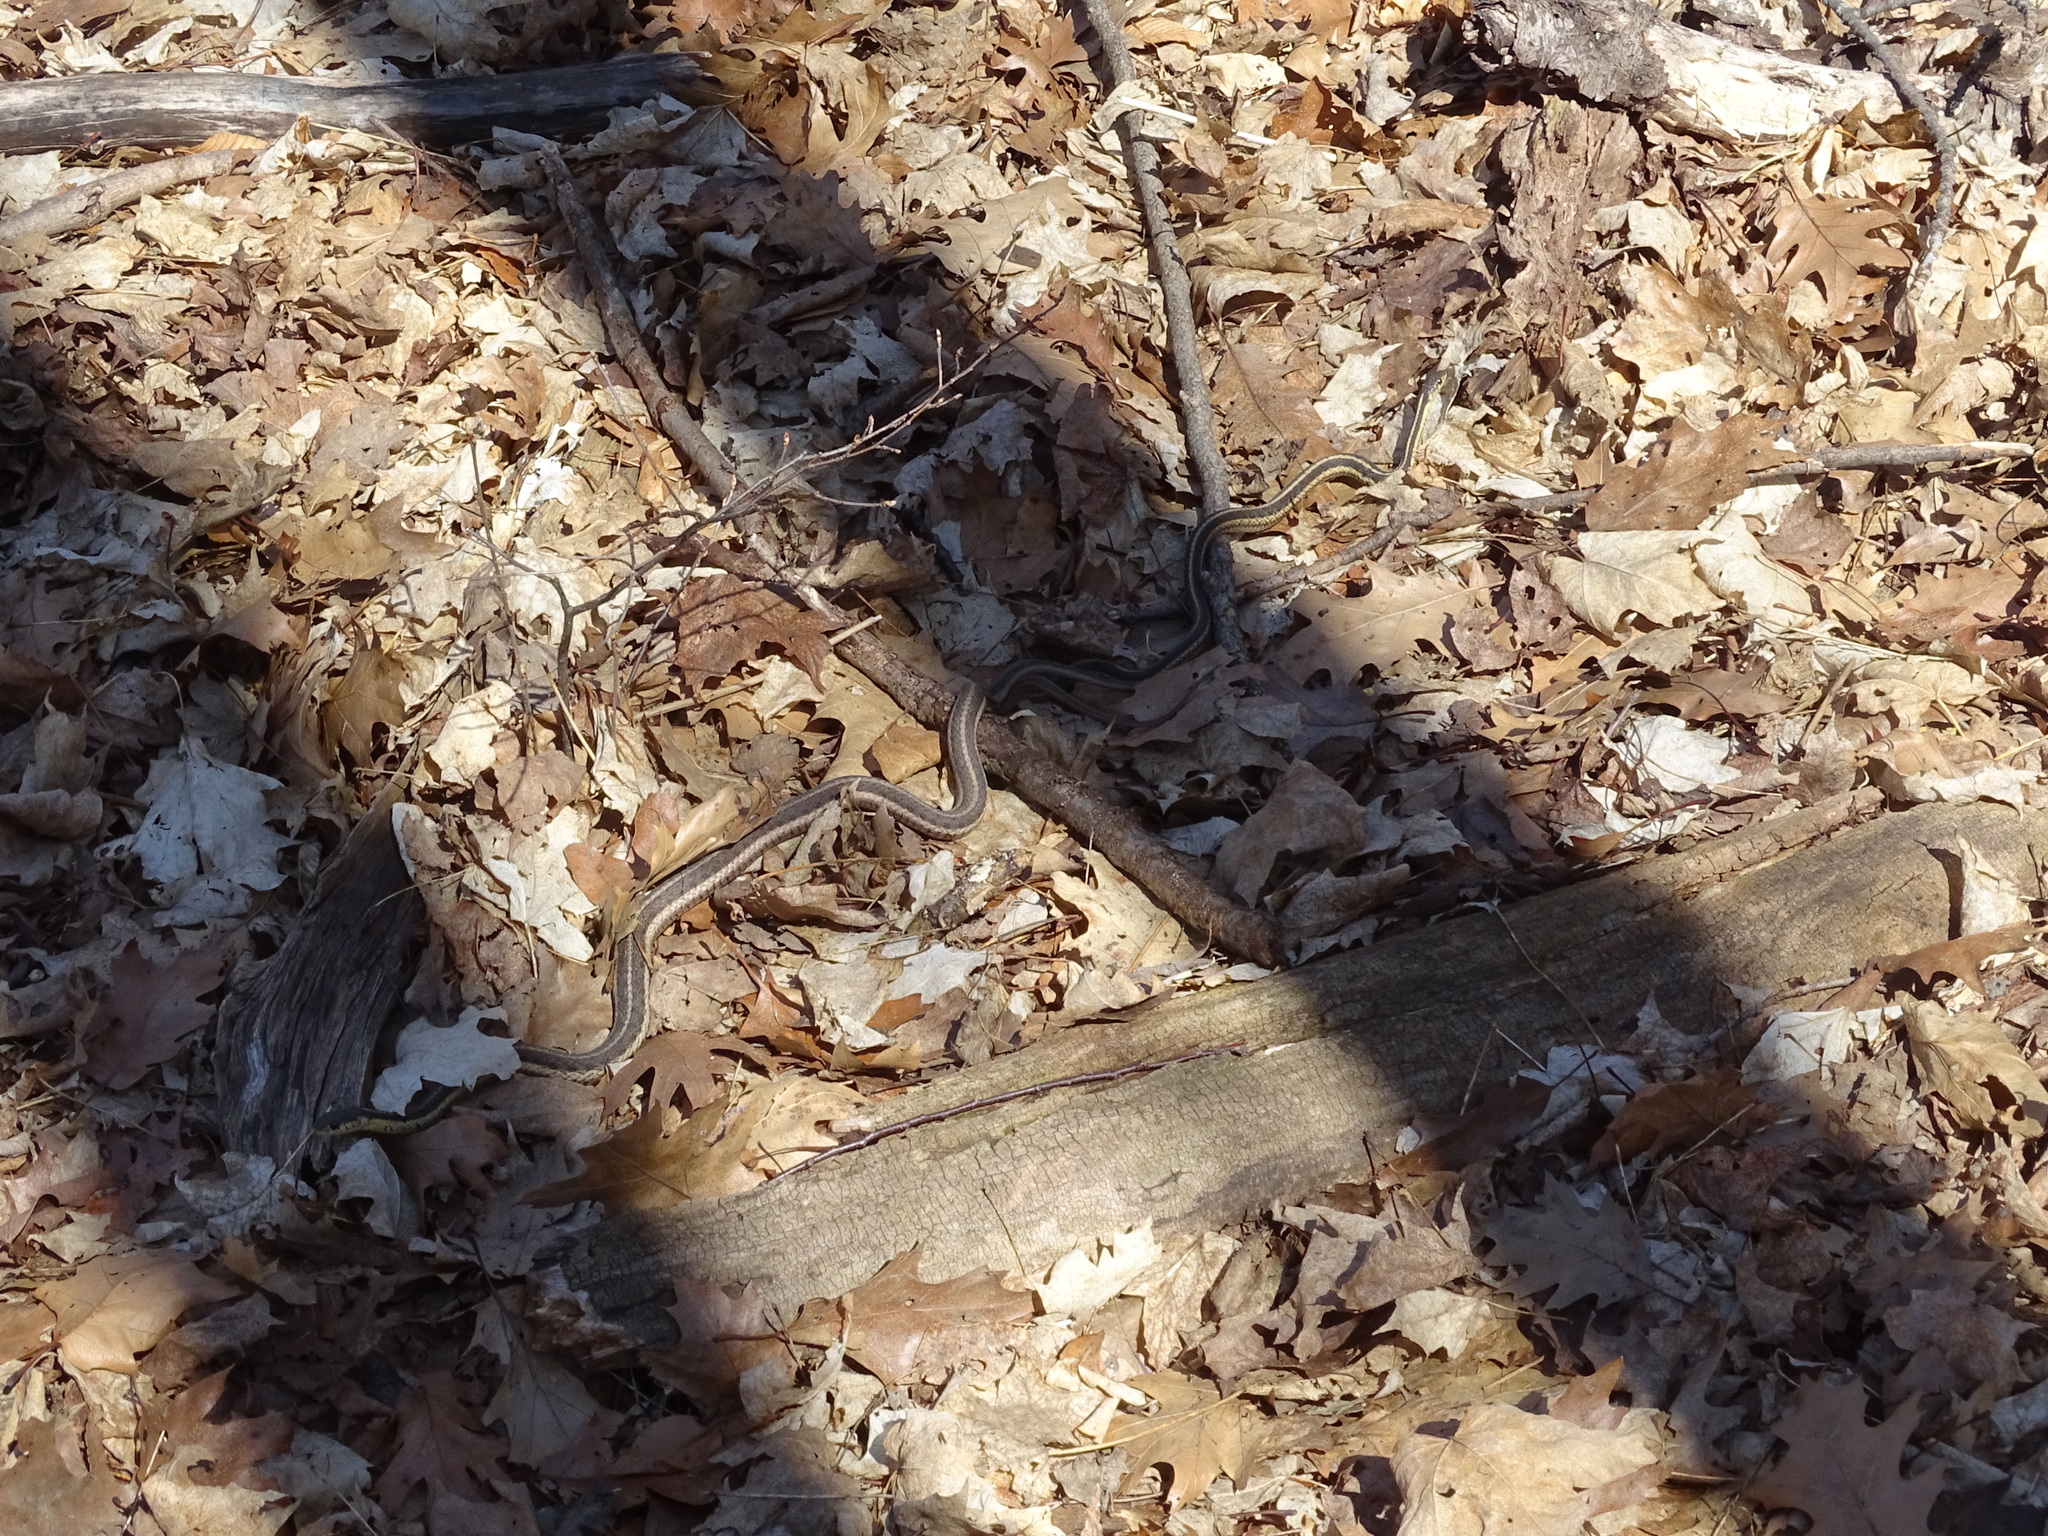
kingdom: Animalia
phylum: Chordata
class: Squamata
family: Colubridae
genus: Thamnophis
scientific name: Thamnophis sirtalis
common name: Common garter snake
